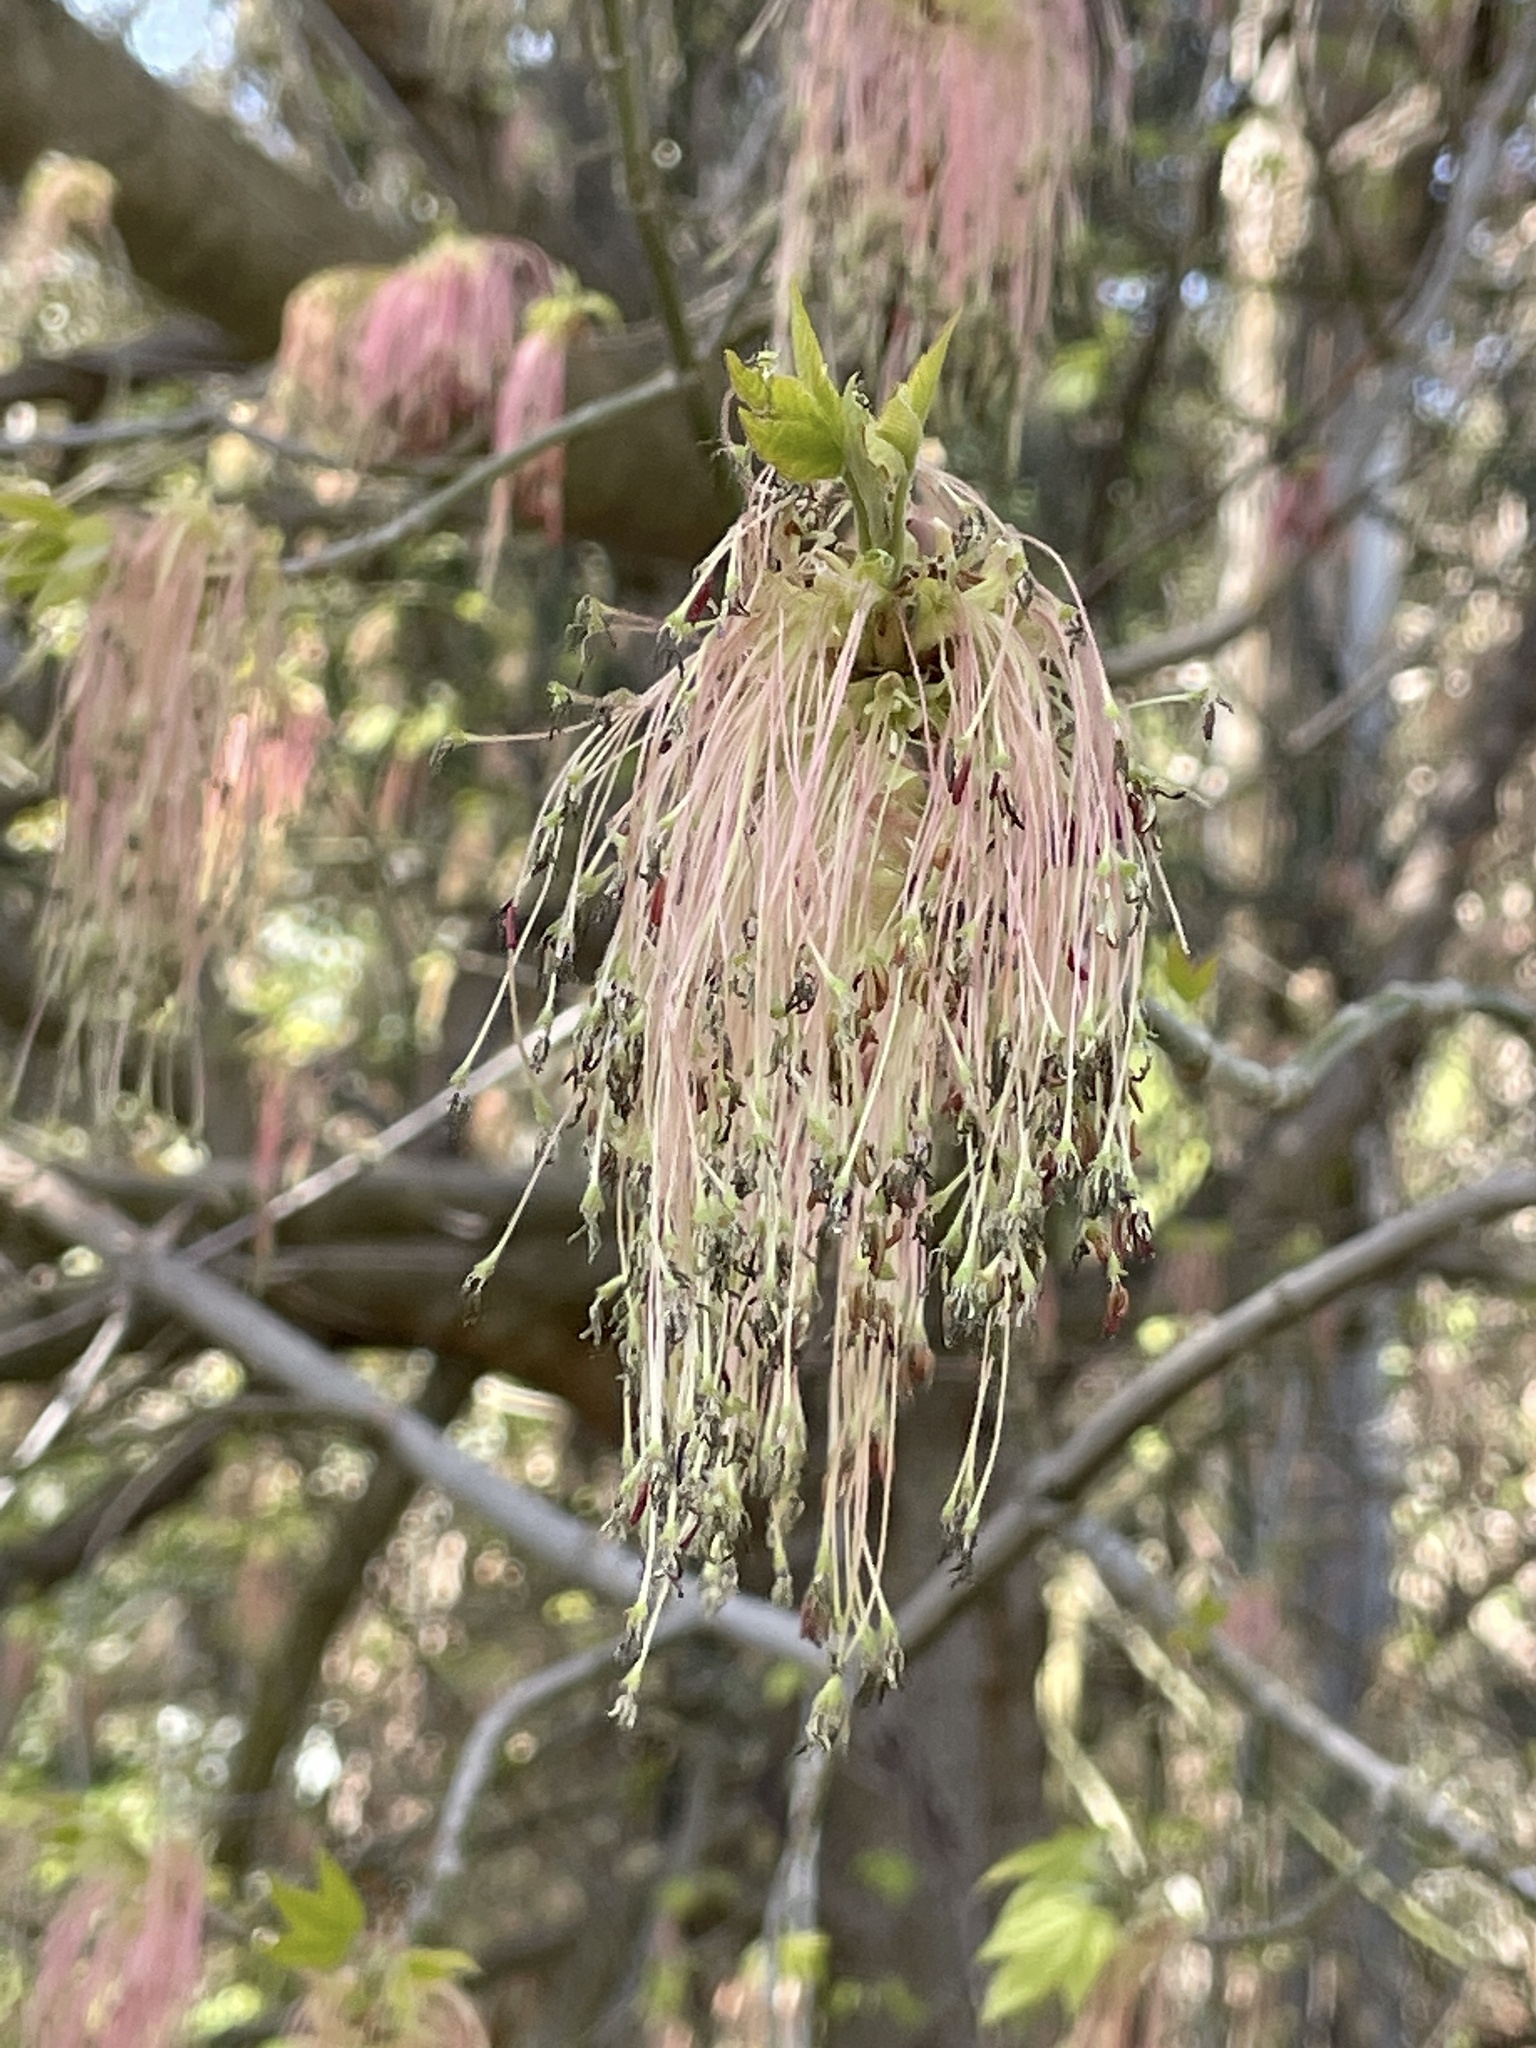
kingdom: Plantae
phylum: Tracheophyta
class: Magnoliopsida
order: Sapindales
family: Sapindaceae
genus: Acer
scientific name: Acer negundo
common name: Ashleaf maple
